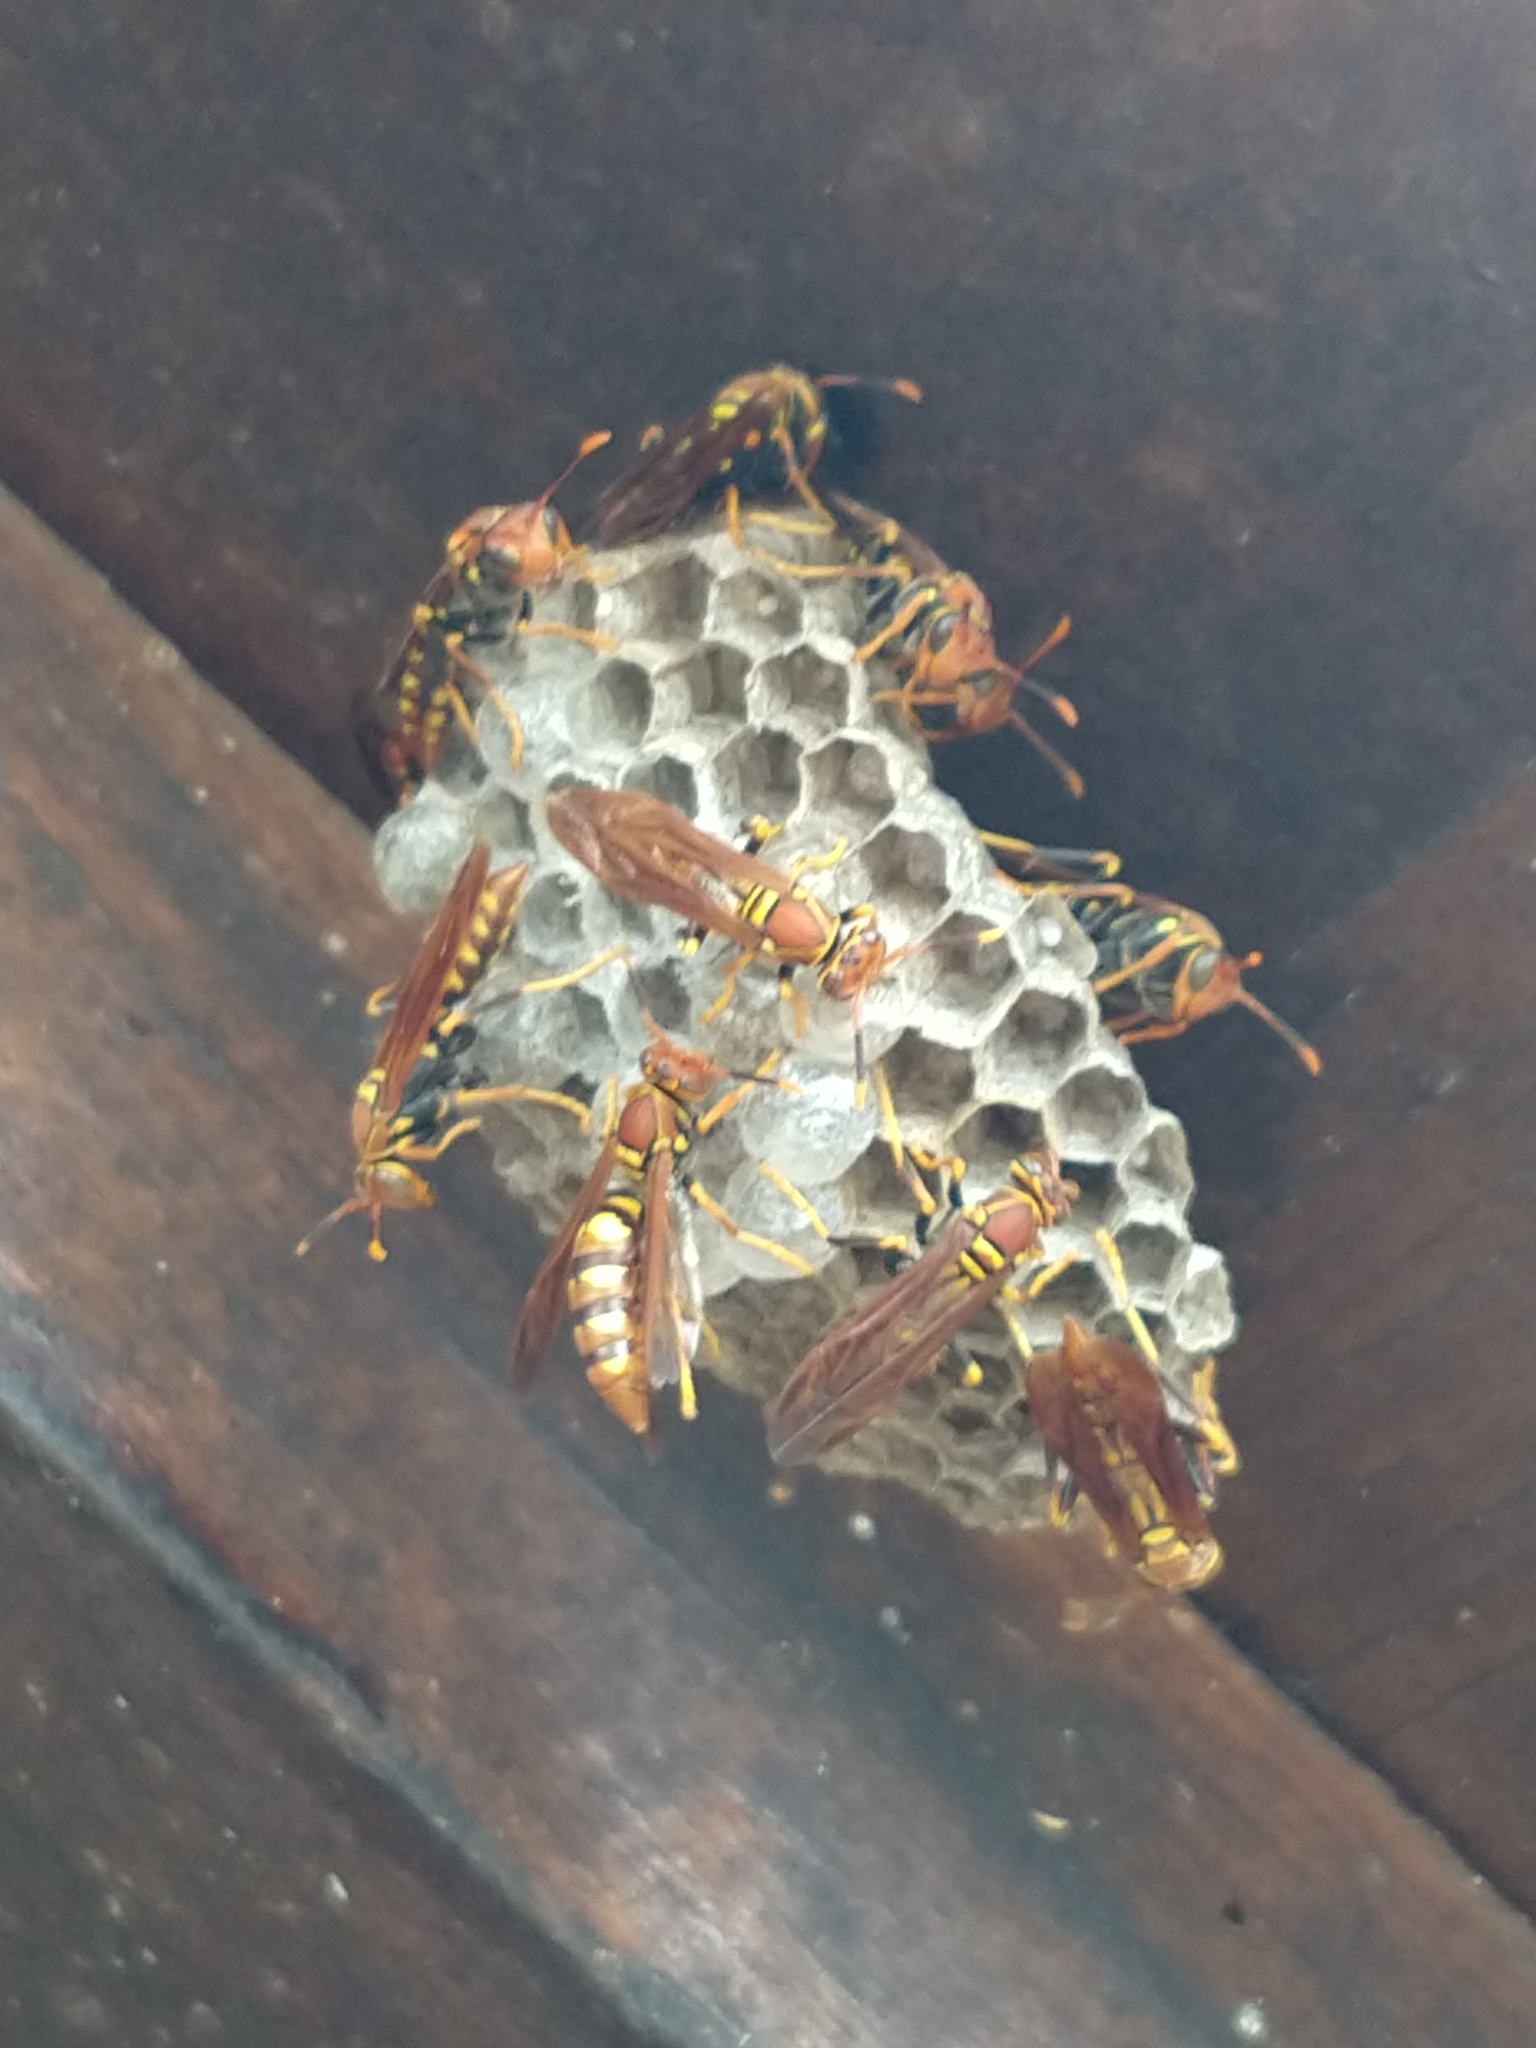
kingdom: Animalia
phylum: Arthropoda
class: Insecta
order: Hymenoptera
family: Eumenidae
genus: Polistes
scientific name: Polistes versicolor
